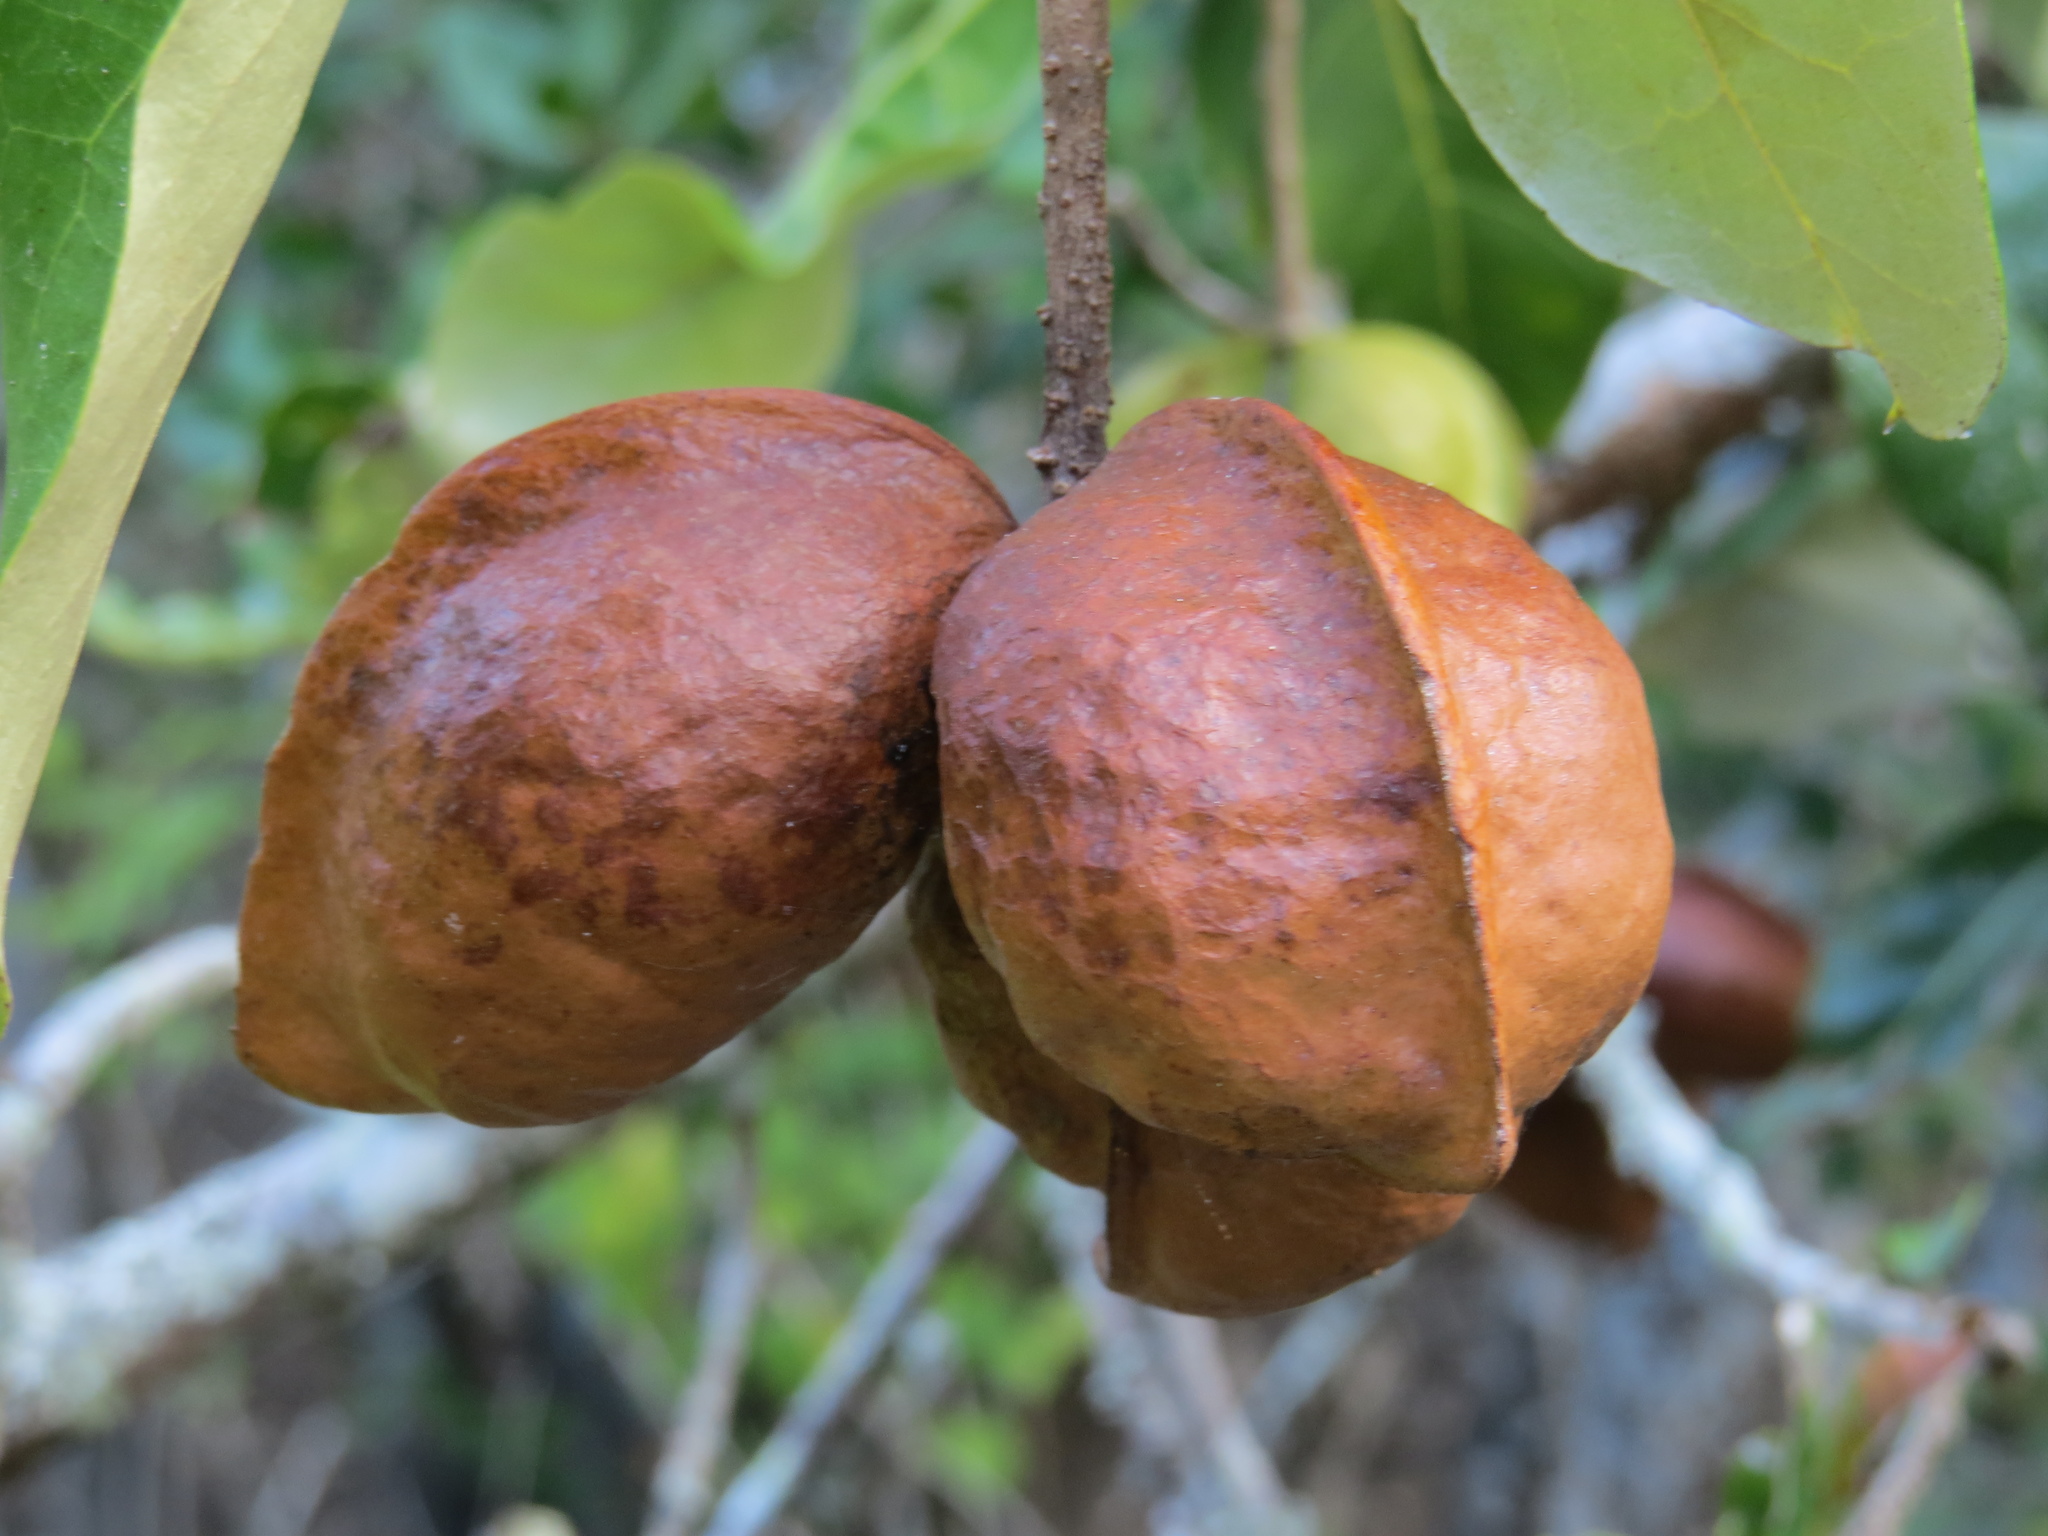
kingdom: Plantae
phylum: Tracheophyta
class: Magnoliopsida
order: Malvales
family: Malvaceae
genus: Heritiera
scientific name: Heritiera littoralis
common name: Looking-glass mangrove
